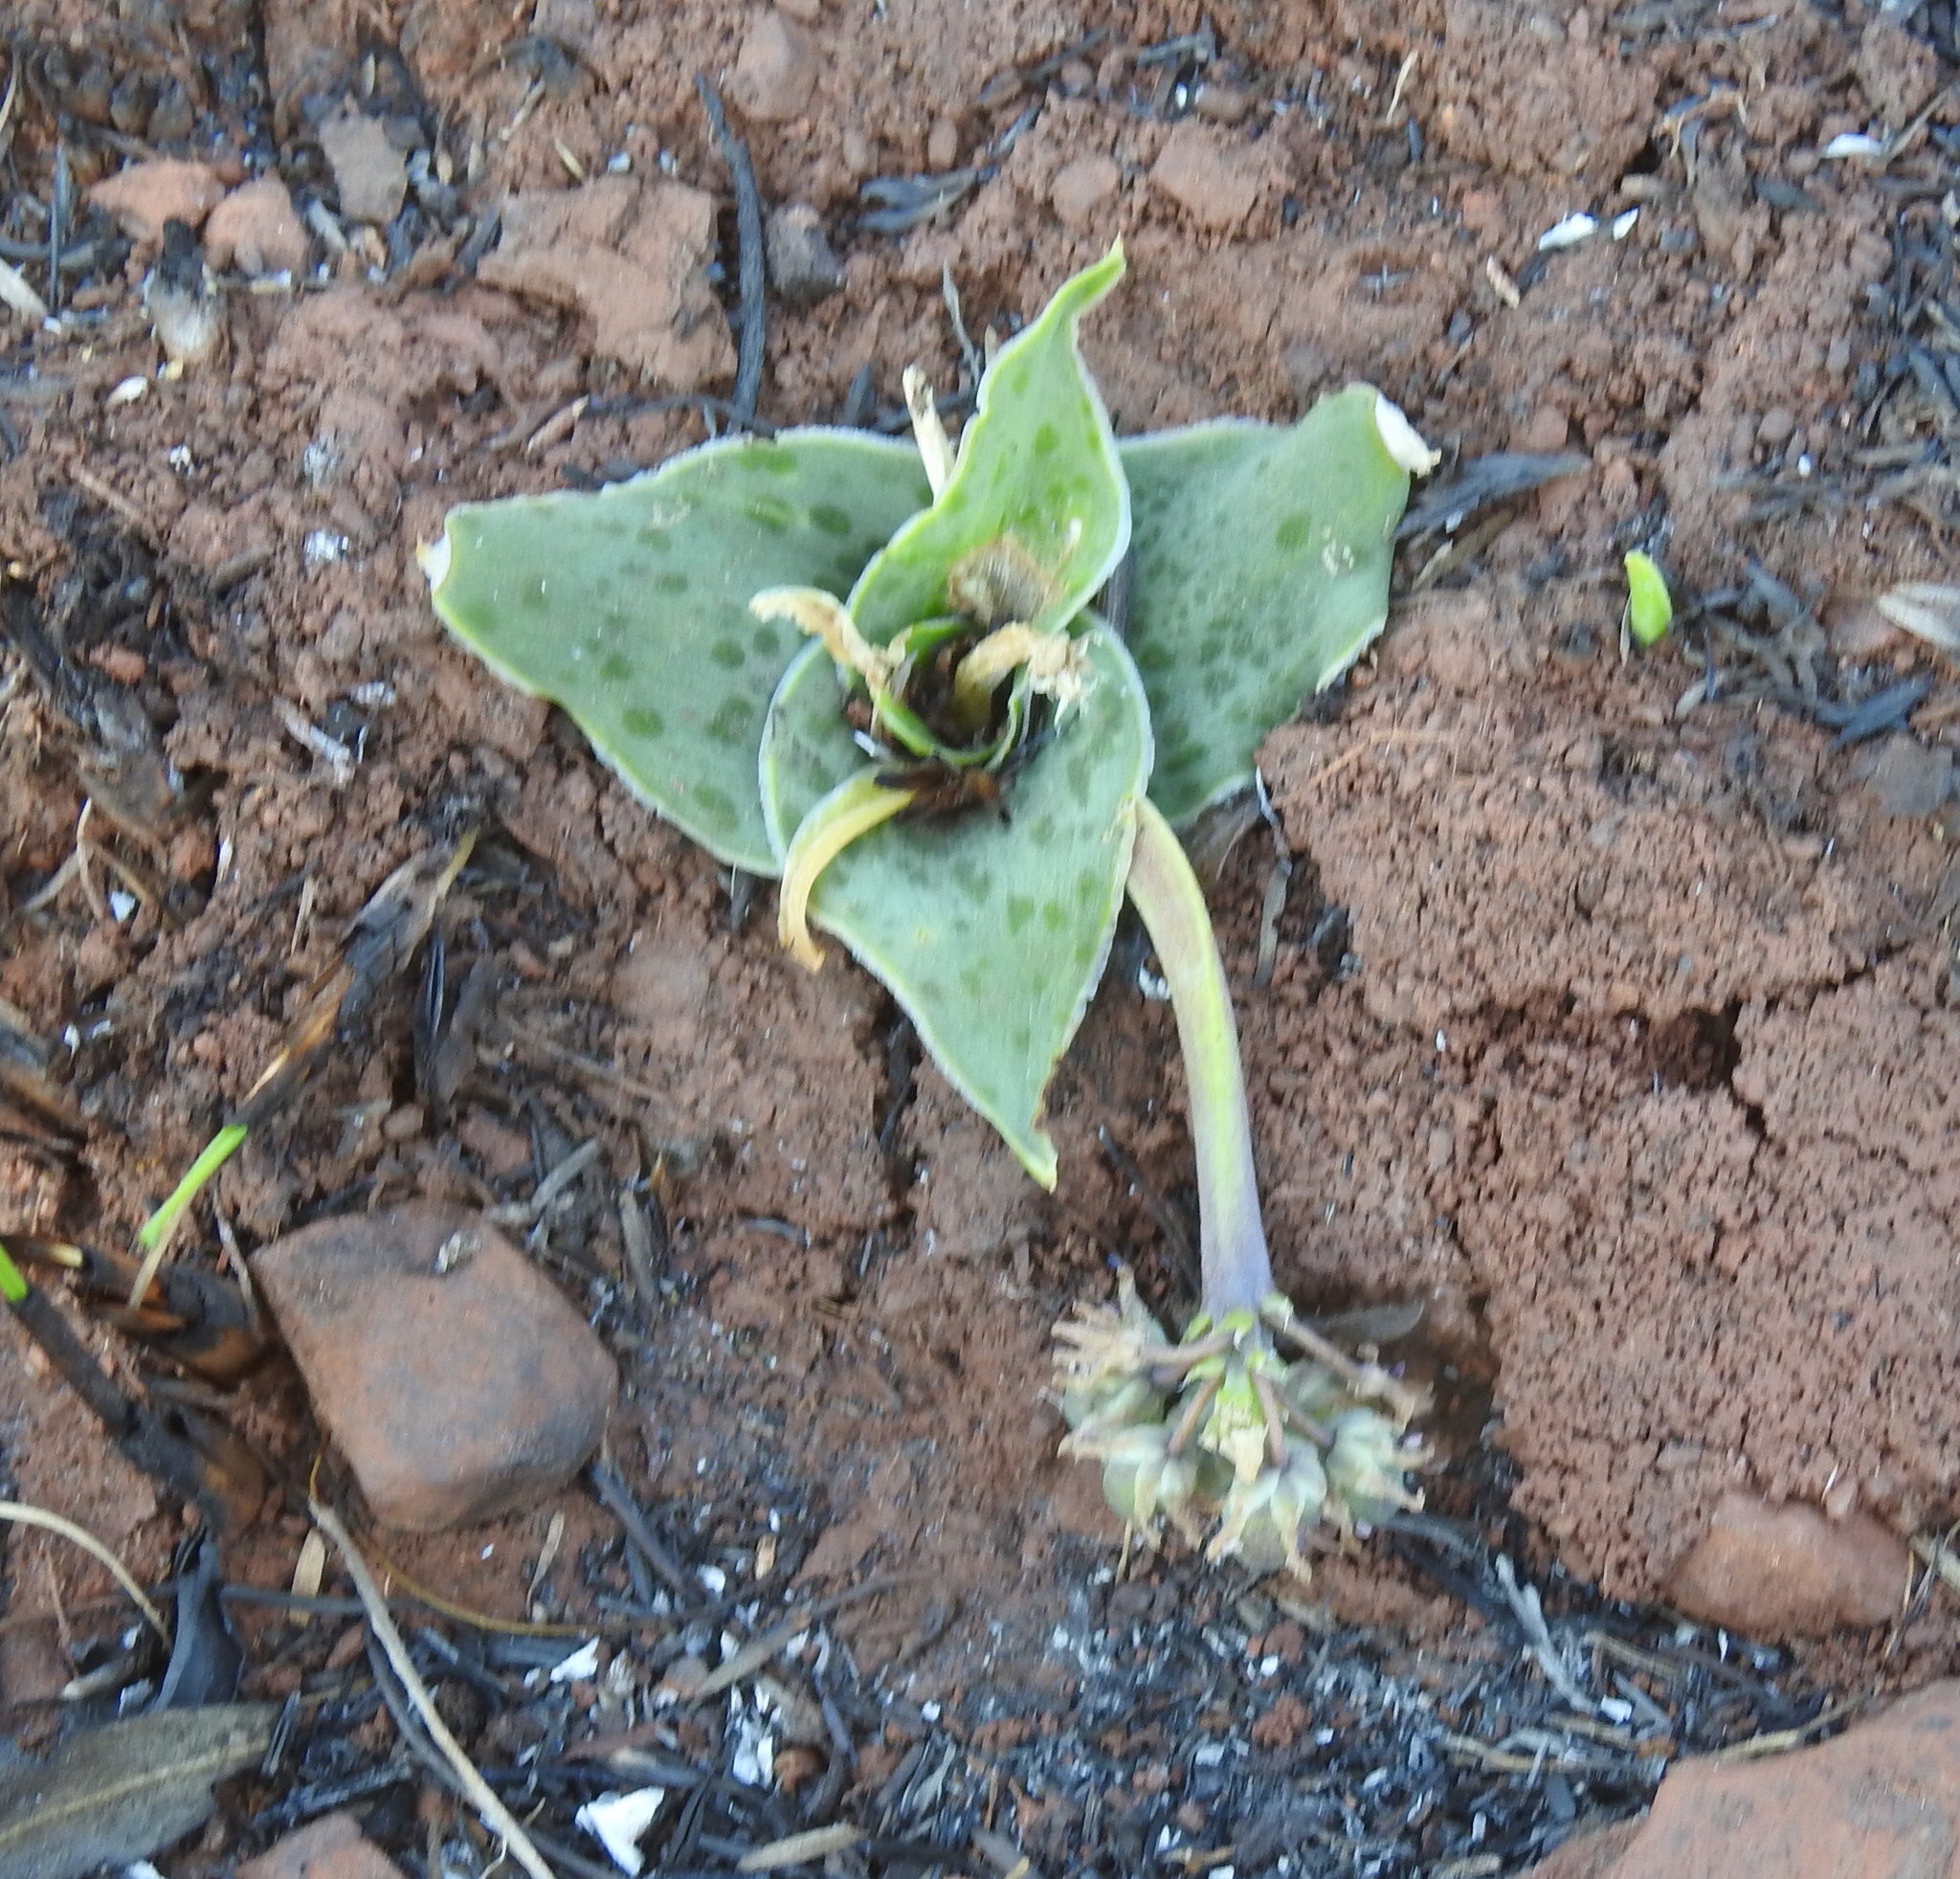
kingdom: Plantae
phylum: Tracheophyta
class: Liliopsida
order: Asparagales
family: Asparagaceae
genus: Ledebouria
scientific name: Ledebouria ovatifolia
